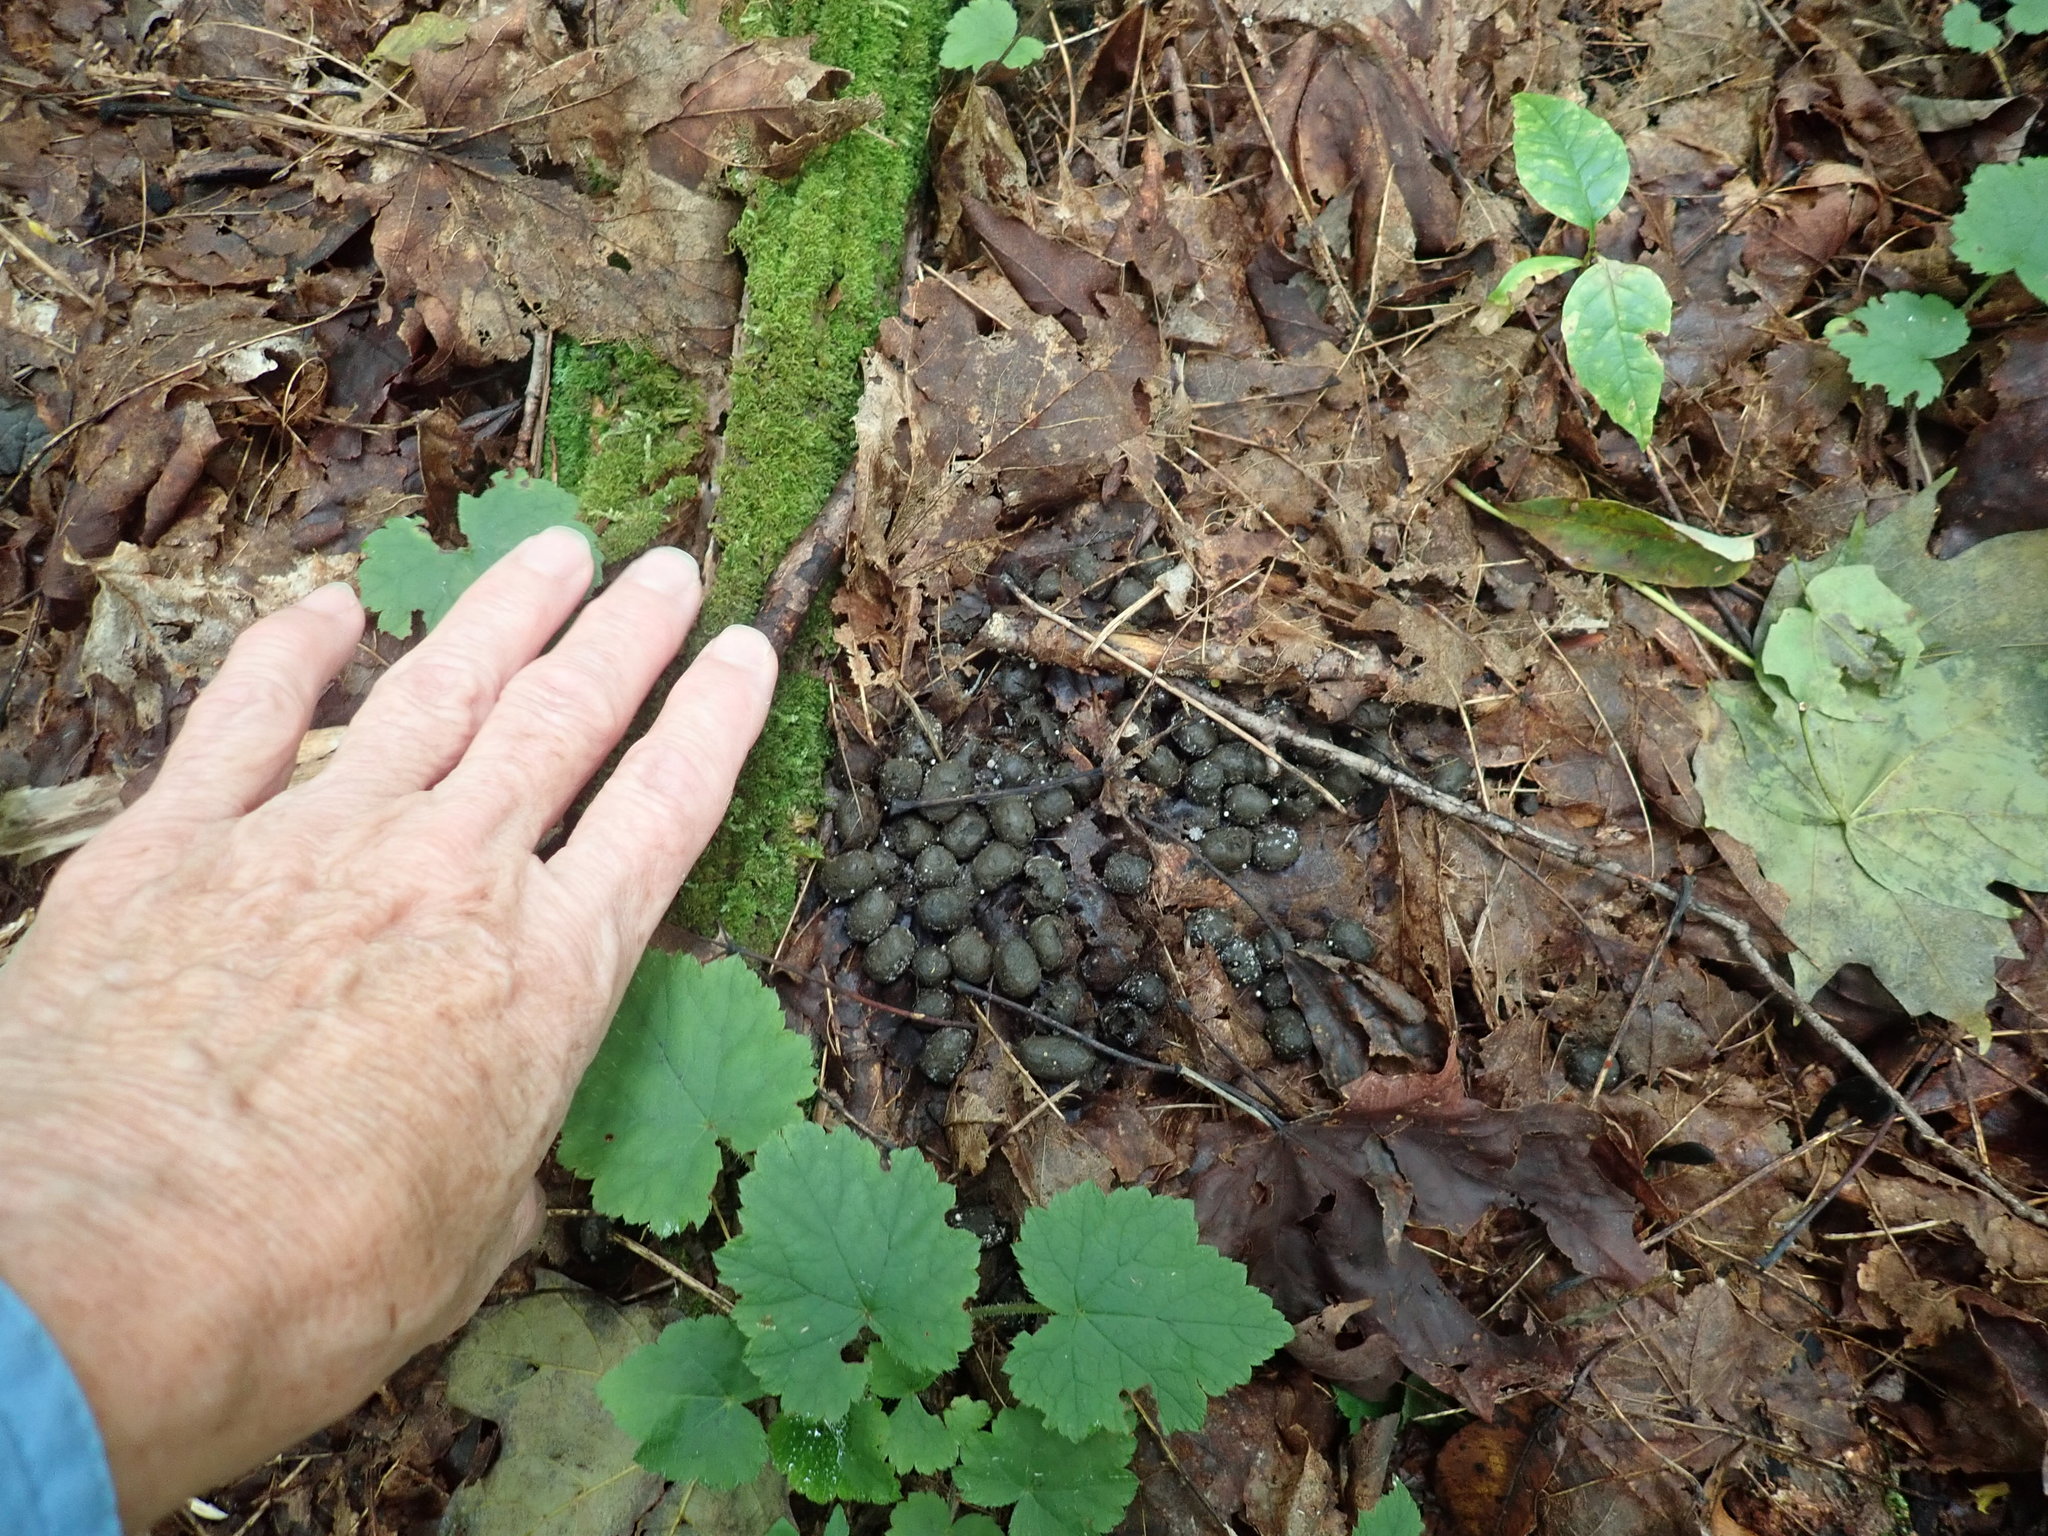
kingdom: Animalia
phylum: Chordata
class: Mammalia
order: Artiodactyla
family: Cervidae
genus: Odocoileus
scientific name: Odocoileus virginianus
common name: White-tailed deer
